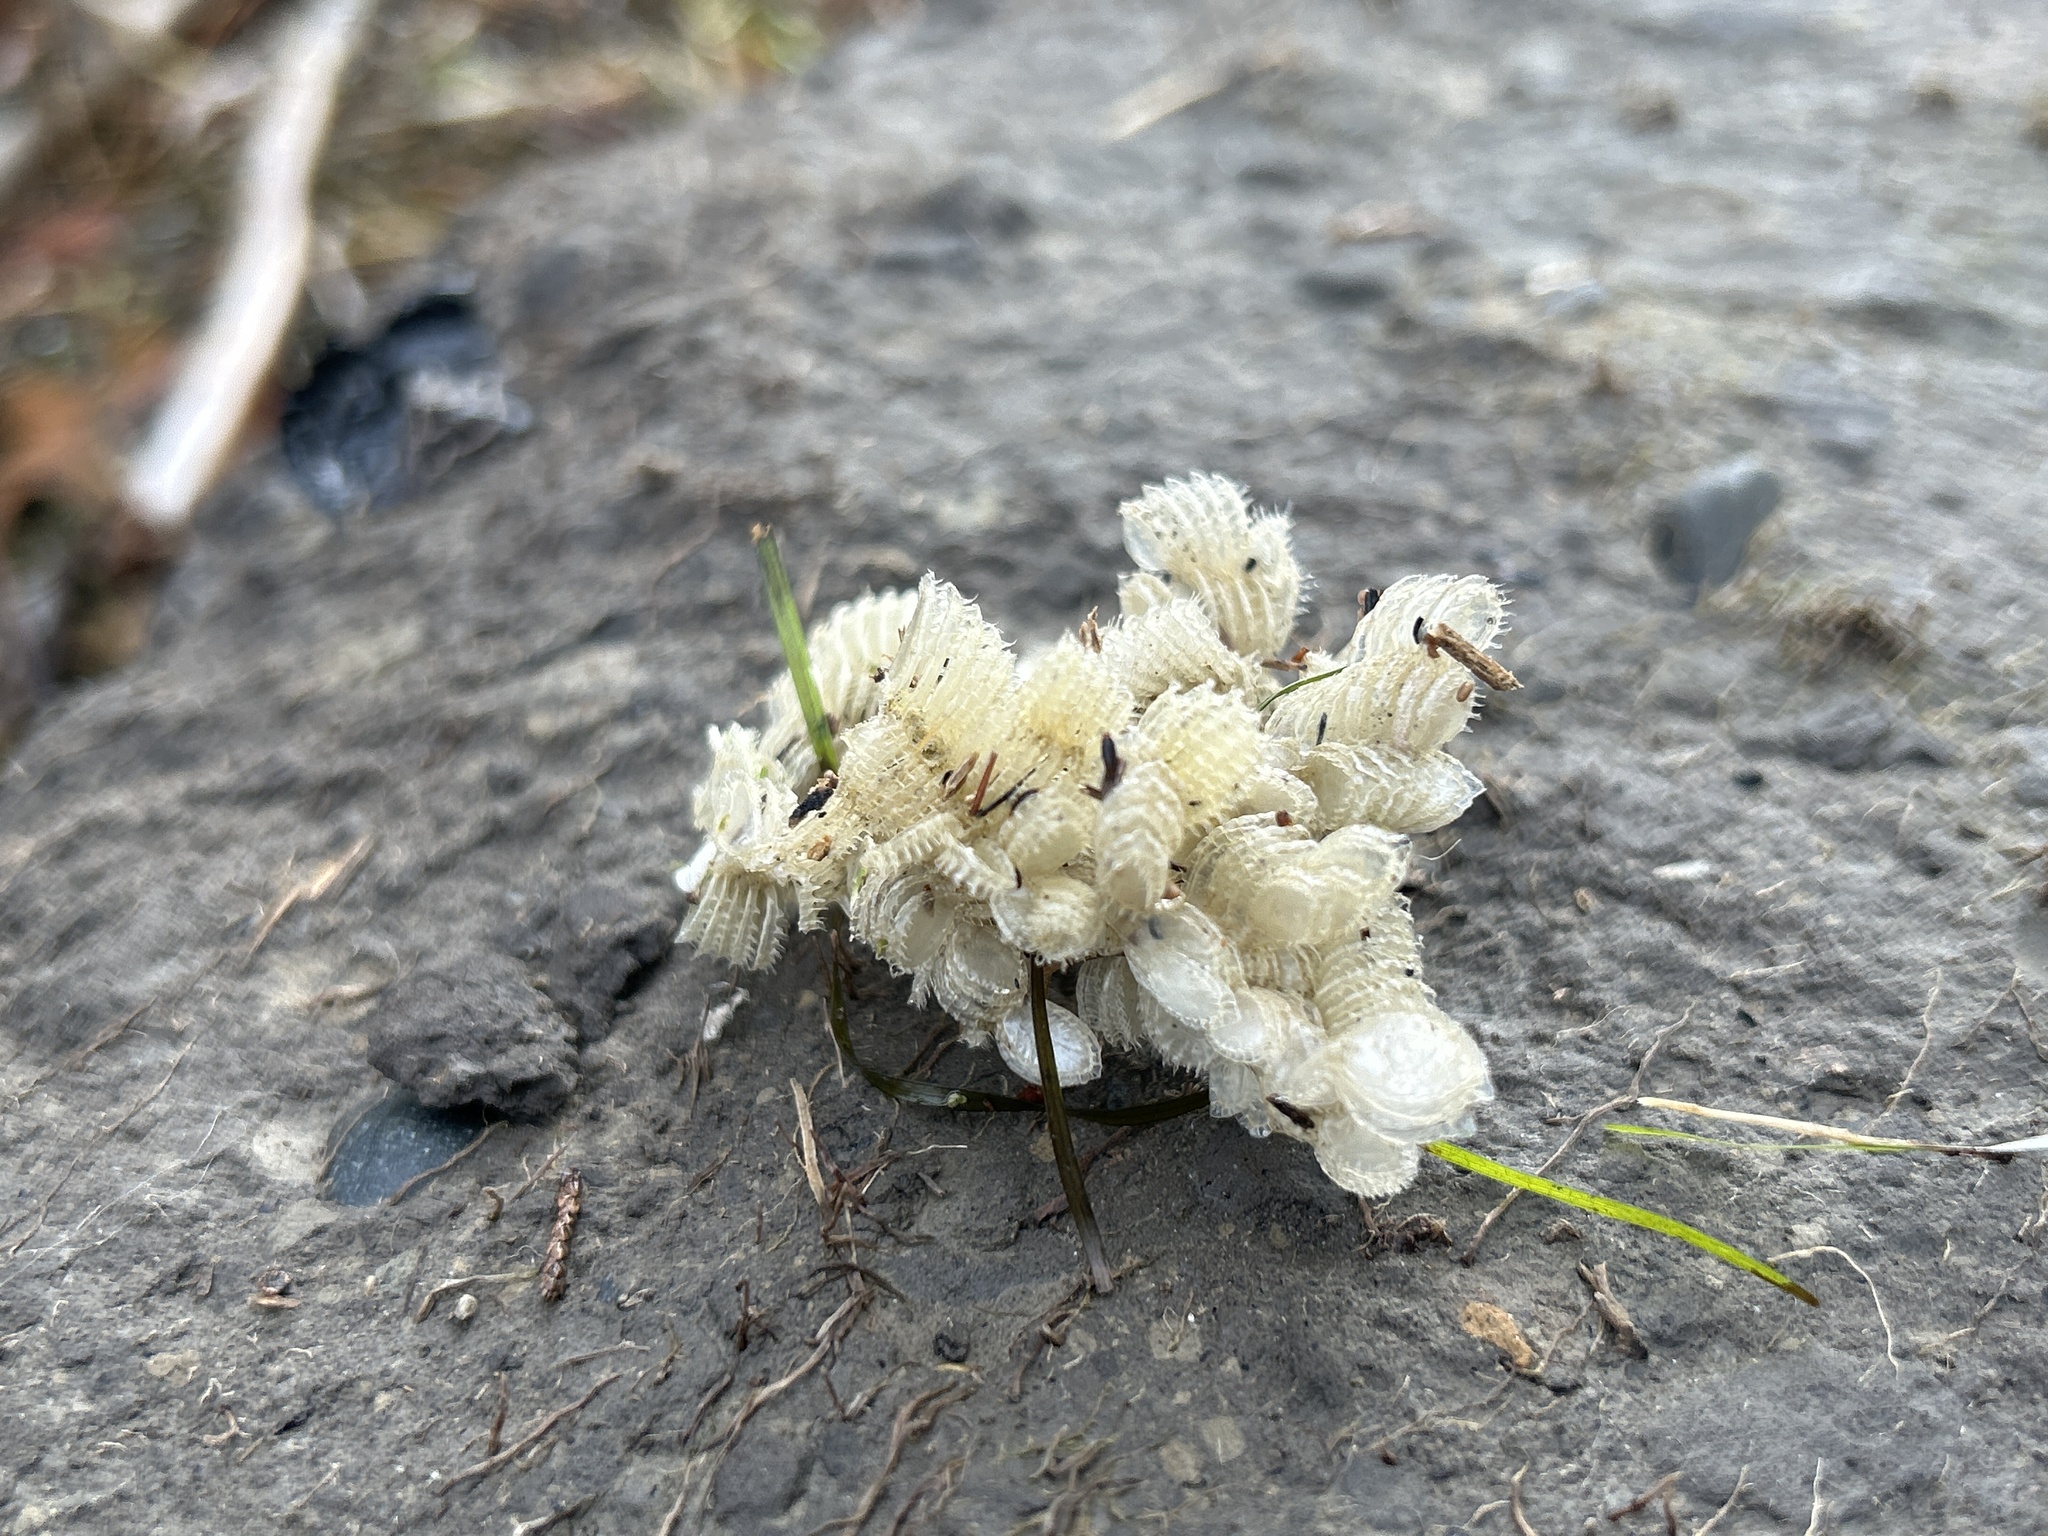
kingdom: Animalia
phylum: Mollusca
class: Gastropoda
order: Neogastropoda
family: Muricidae
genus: Poirieria
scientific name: Poirieria zelandica
